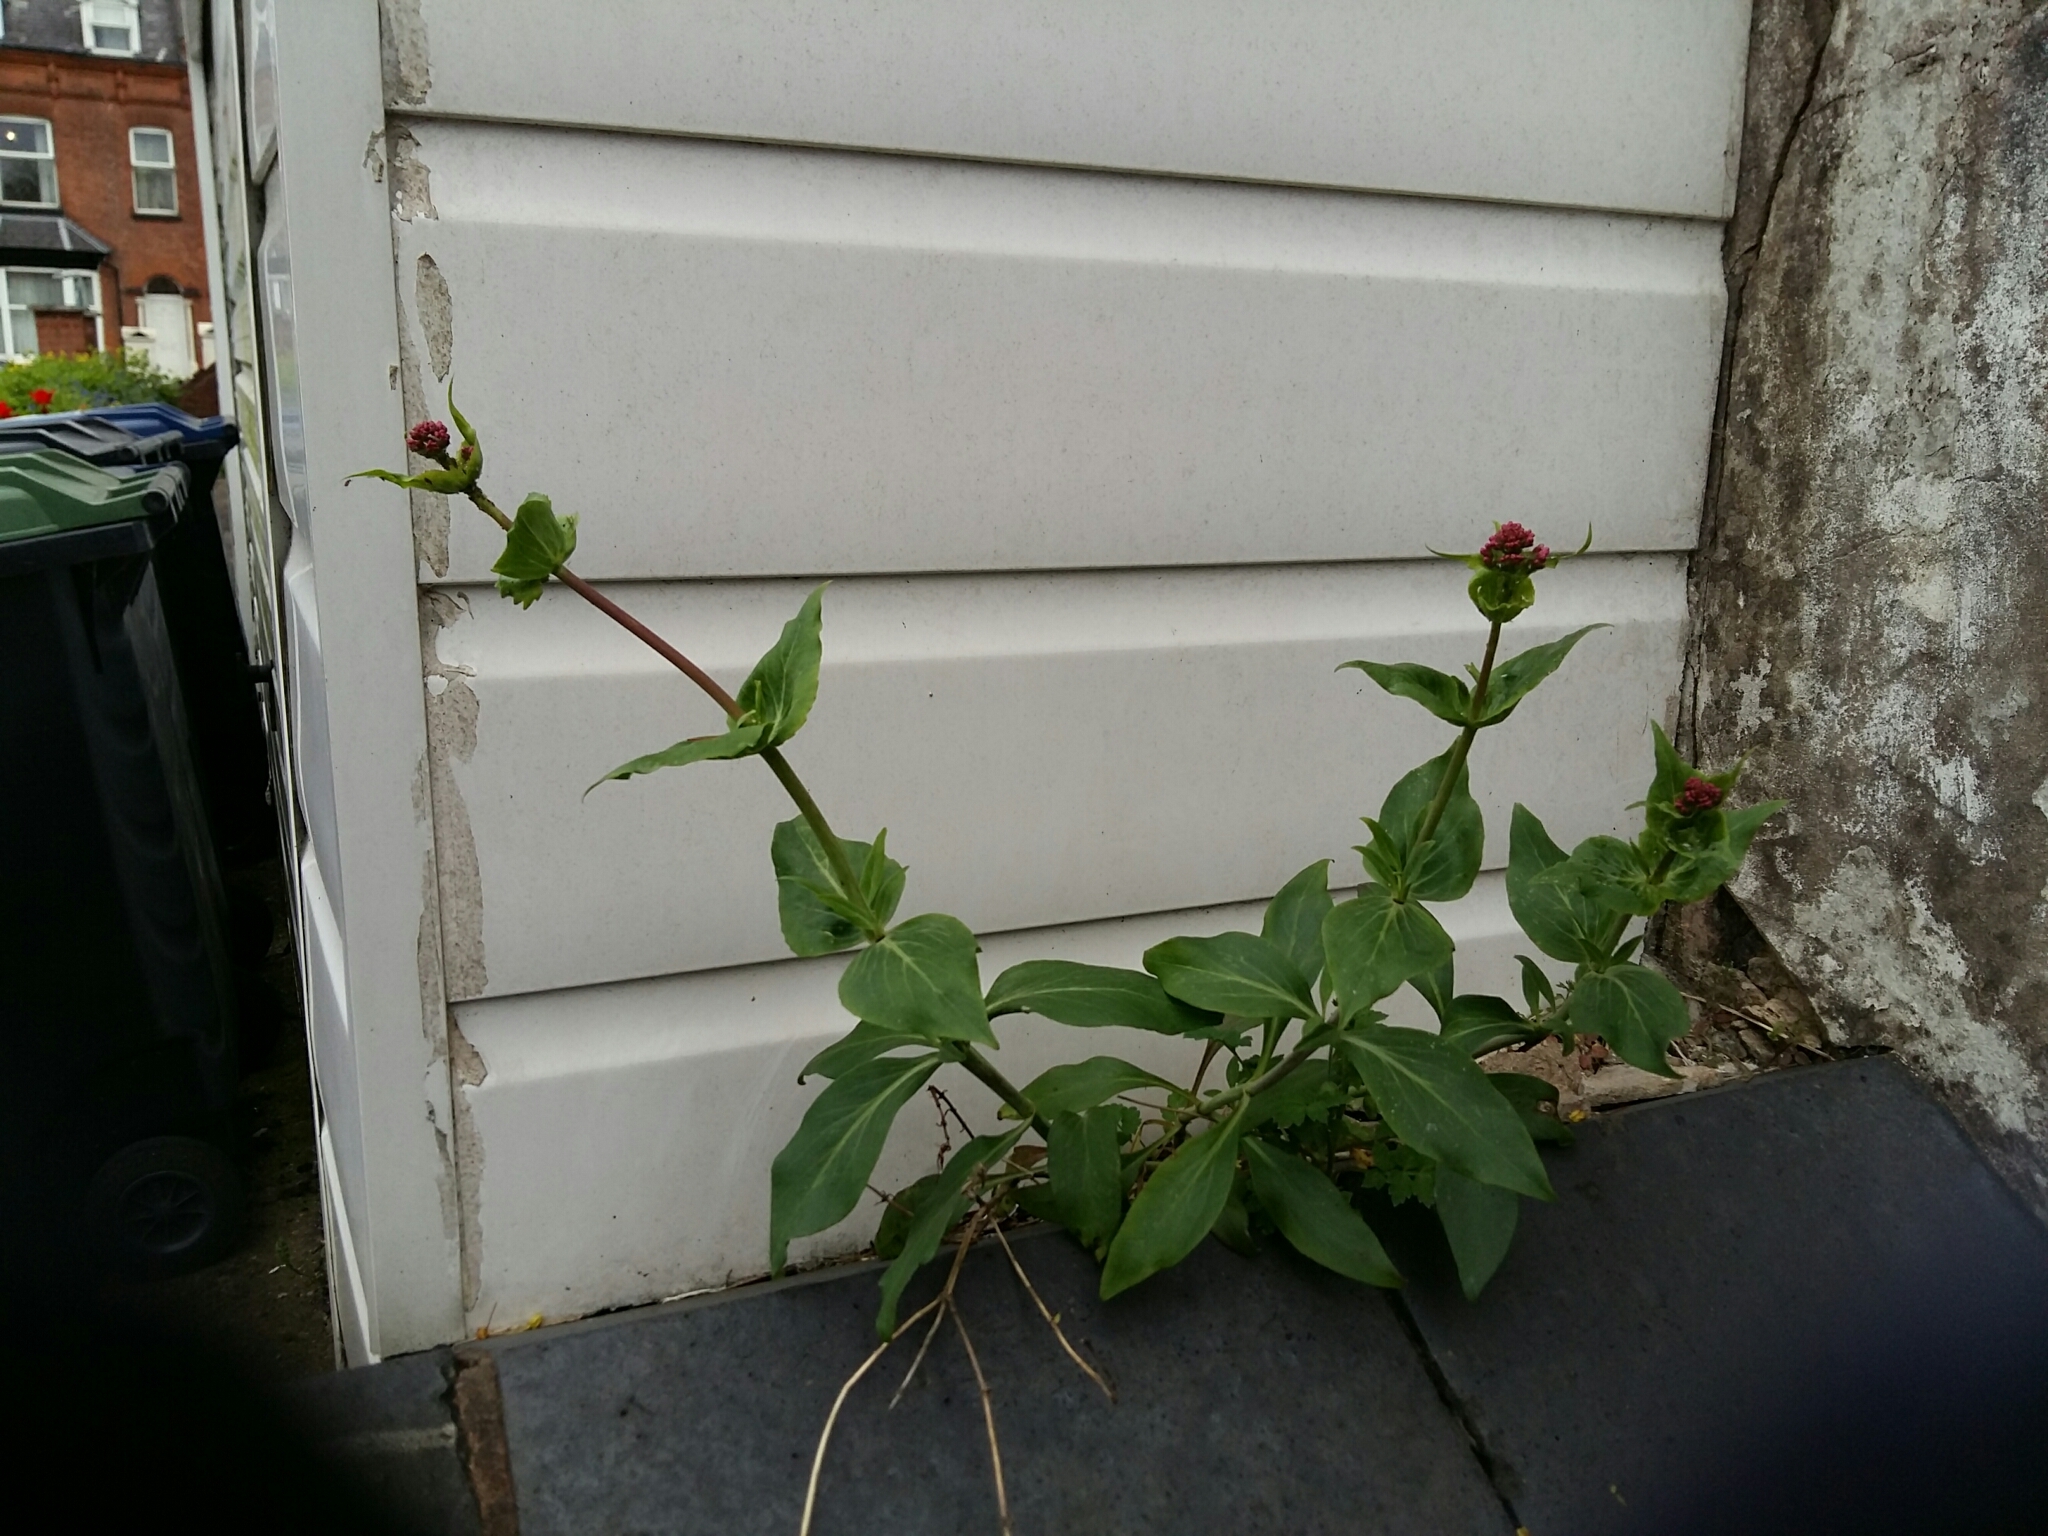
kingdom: Plantae
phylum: Tracheophyta
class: Magnoliopsida
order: Dipsacales
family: Caprifoliaceae
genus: Centranthus
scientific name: Centranthus ruber
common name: Red valerian
